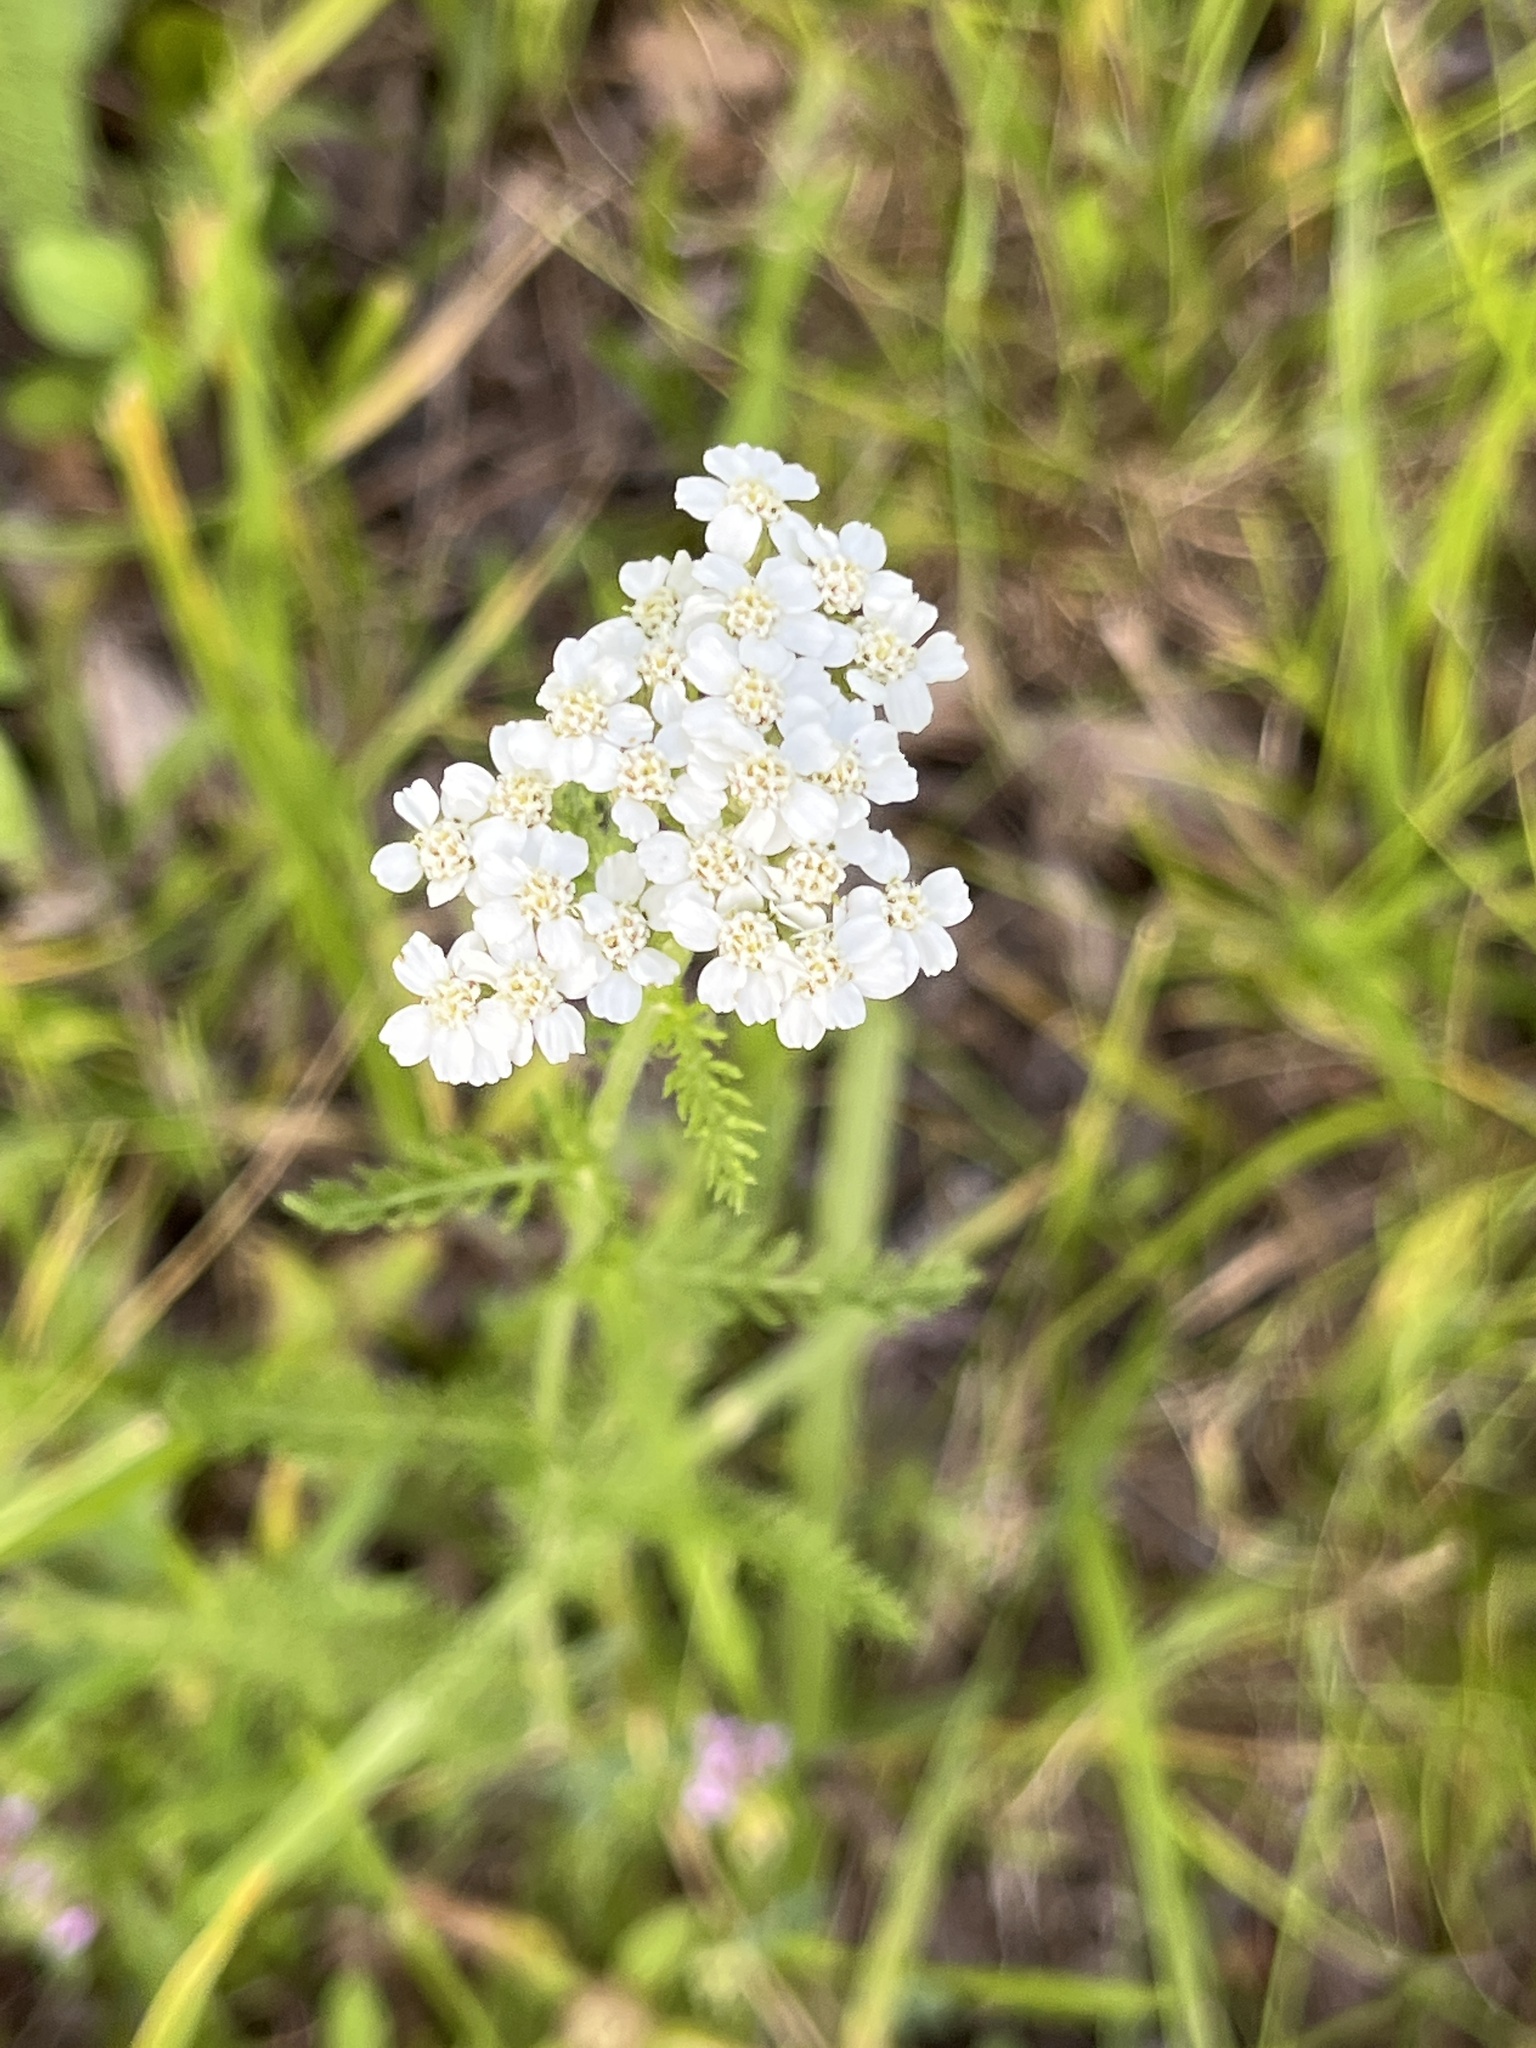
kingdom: Plantae
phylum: Tracheophyta
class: Magnoliopsida
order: Asterales
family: Asteraceae
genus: Achillea
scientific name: Achillea millefolium
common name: Yarrow
